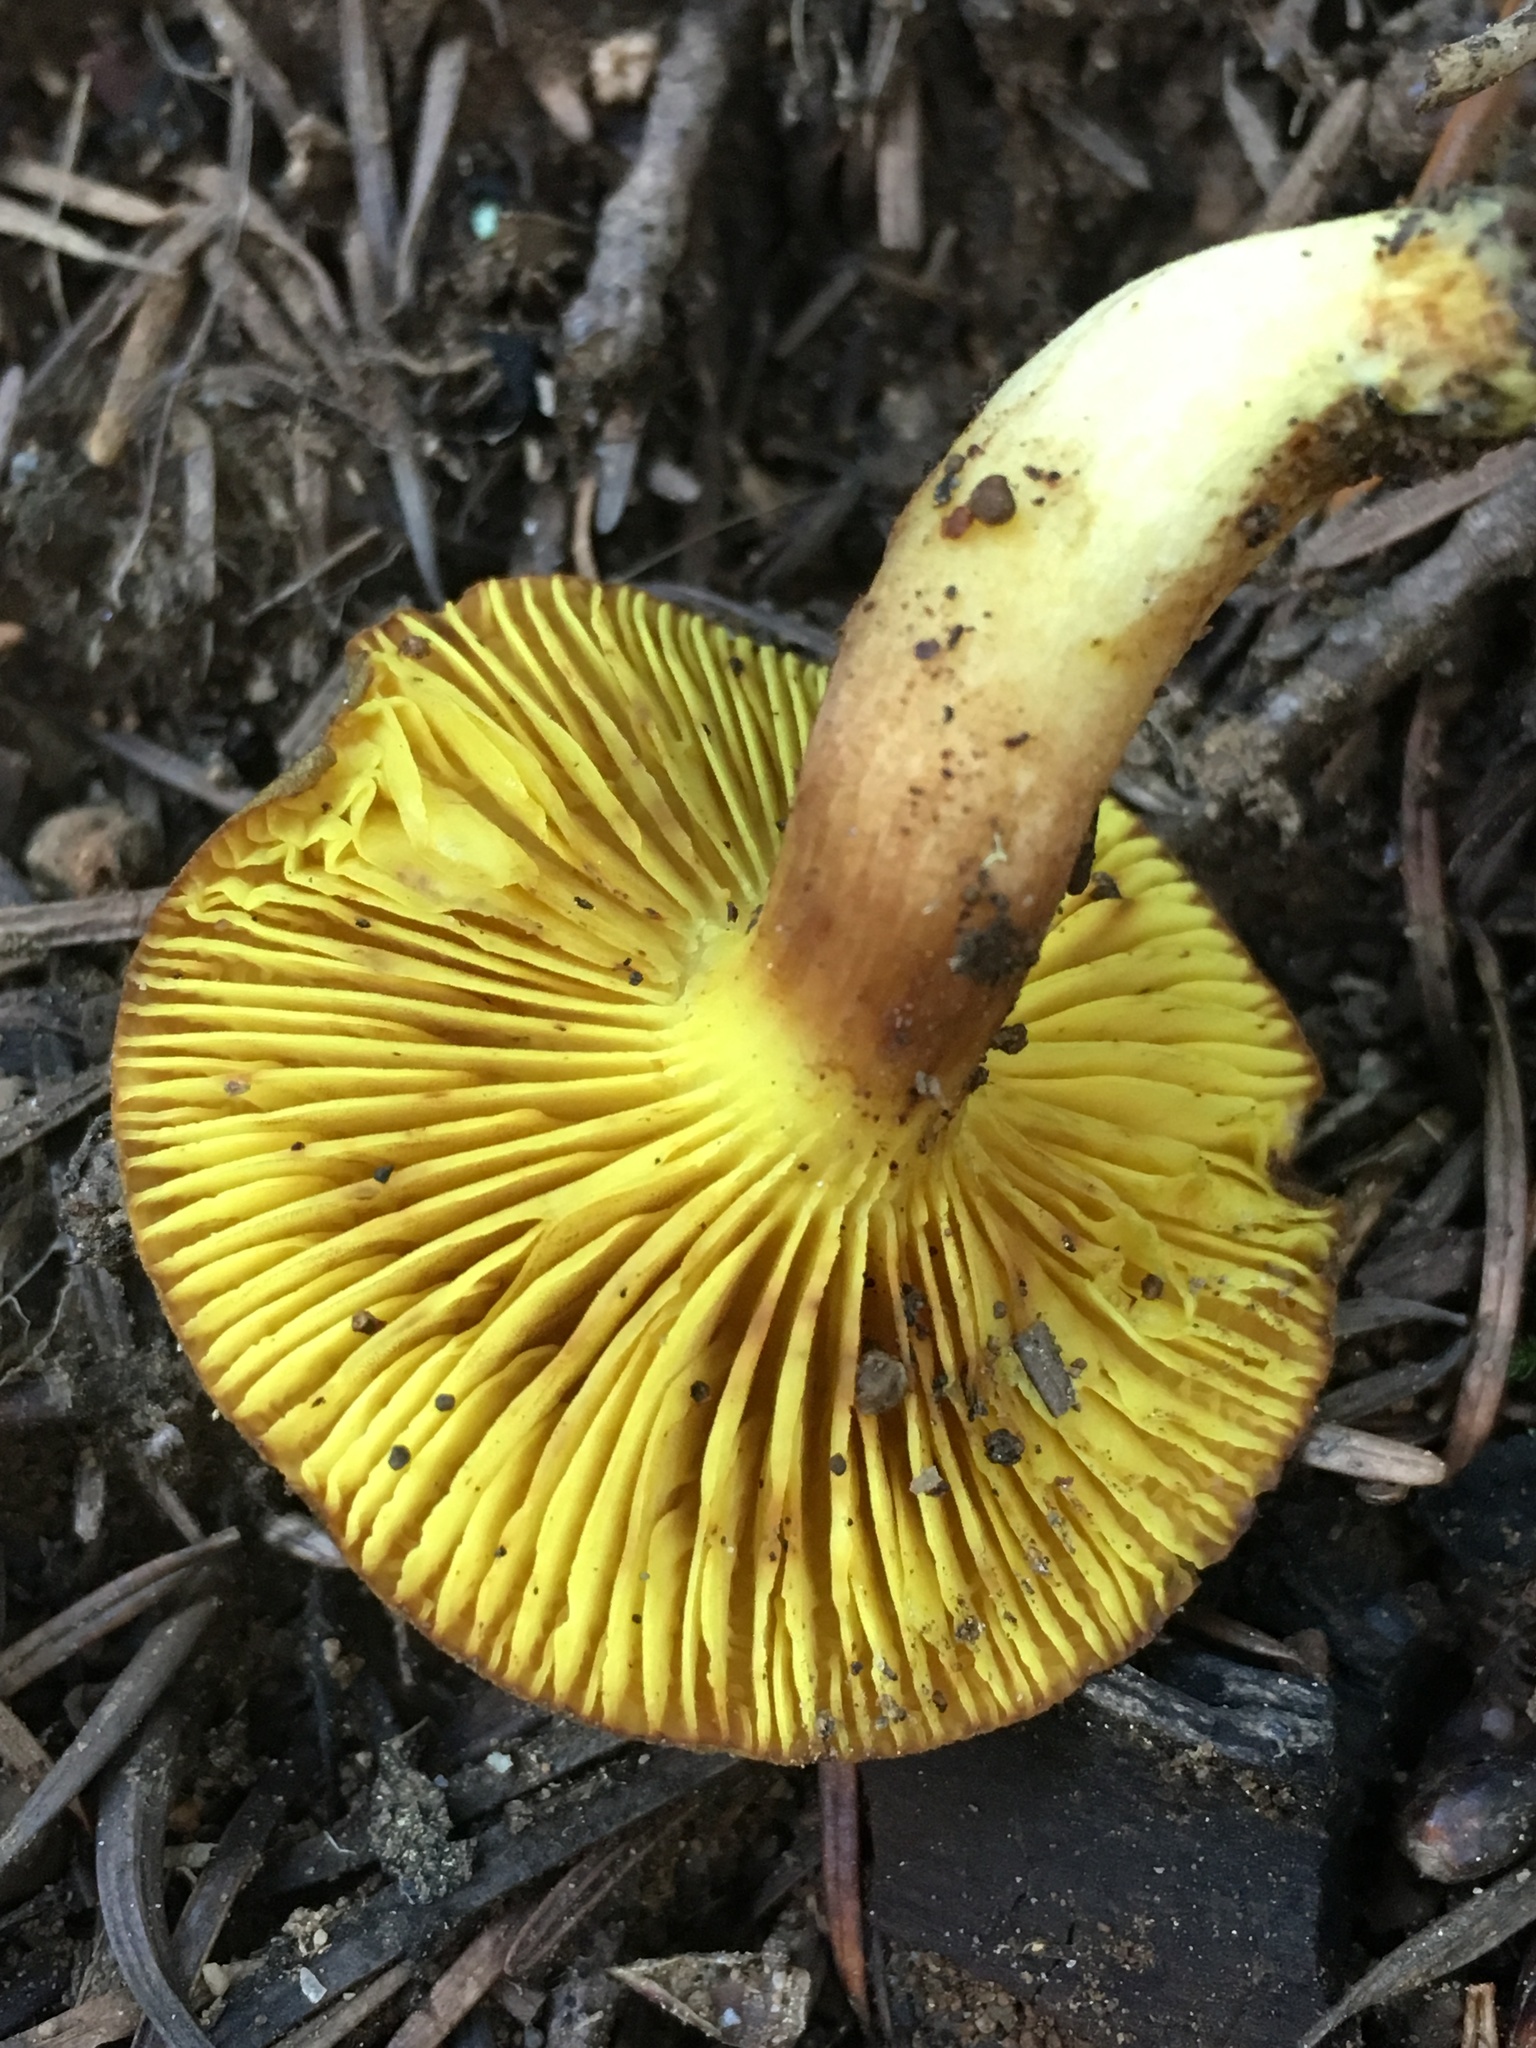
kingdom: Fungi
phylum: Basidiomycota
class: Agaricomycetes
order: Boletales
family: Boletaceae
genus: Phylloporus
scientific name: Phylloporus arenicola
